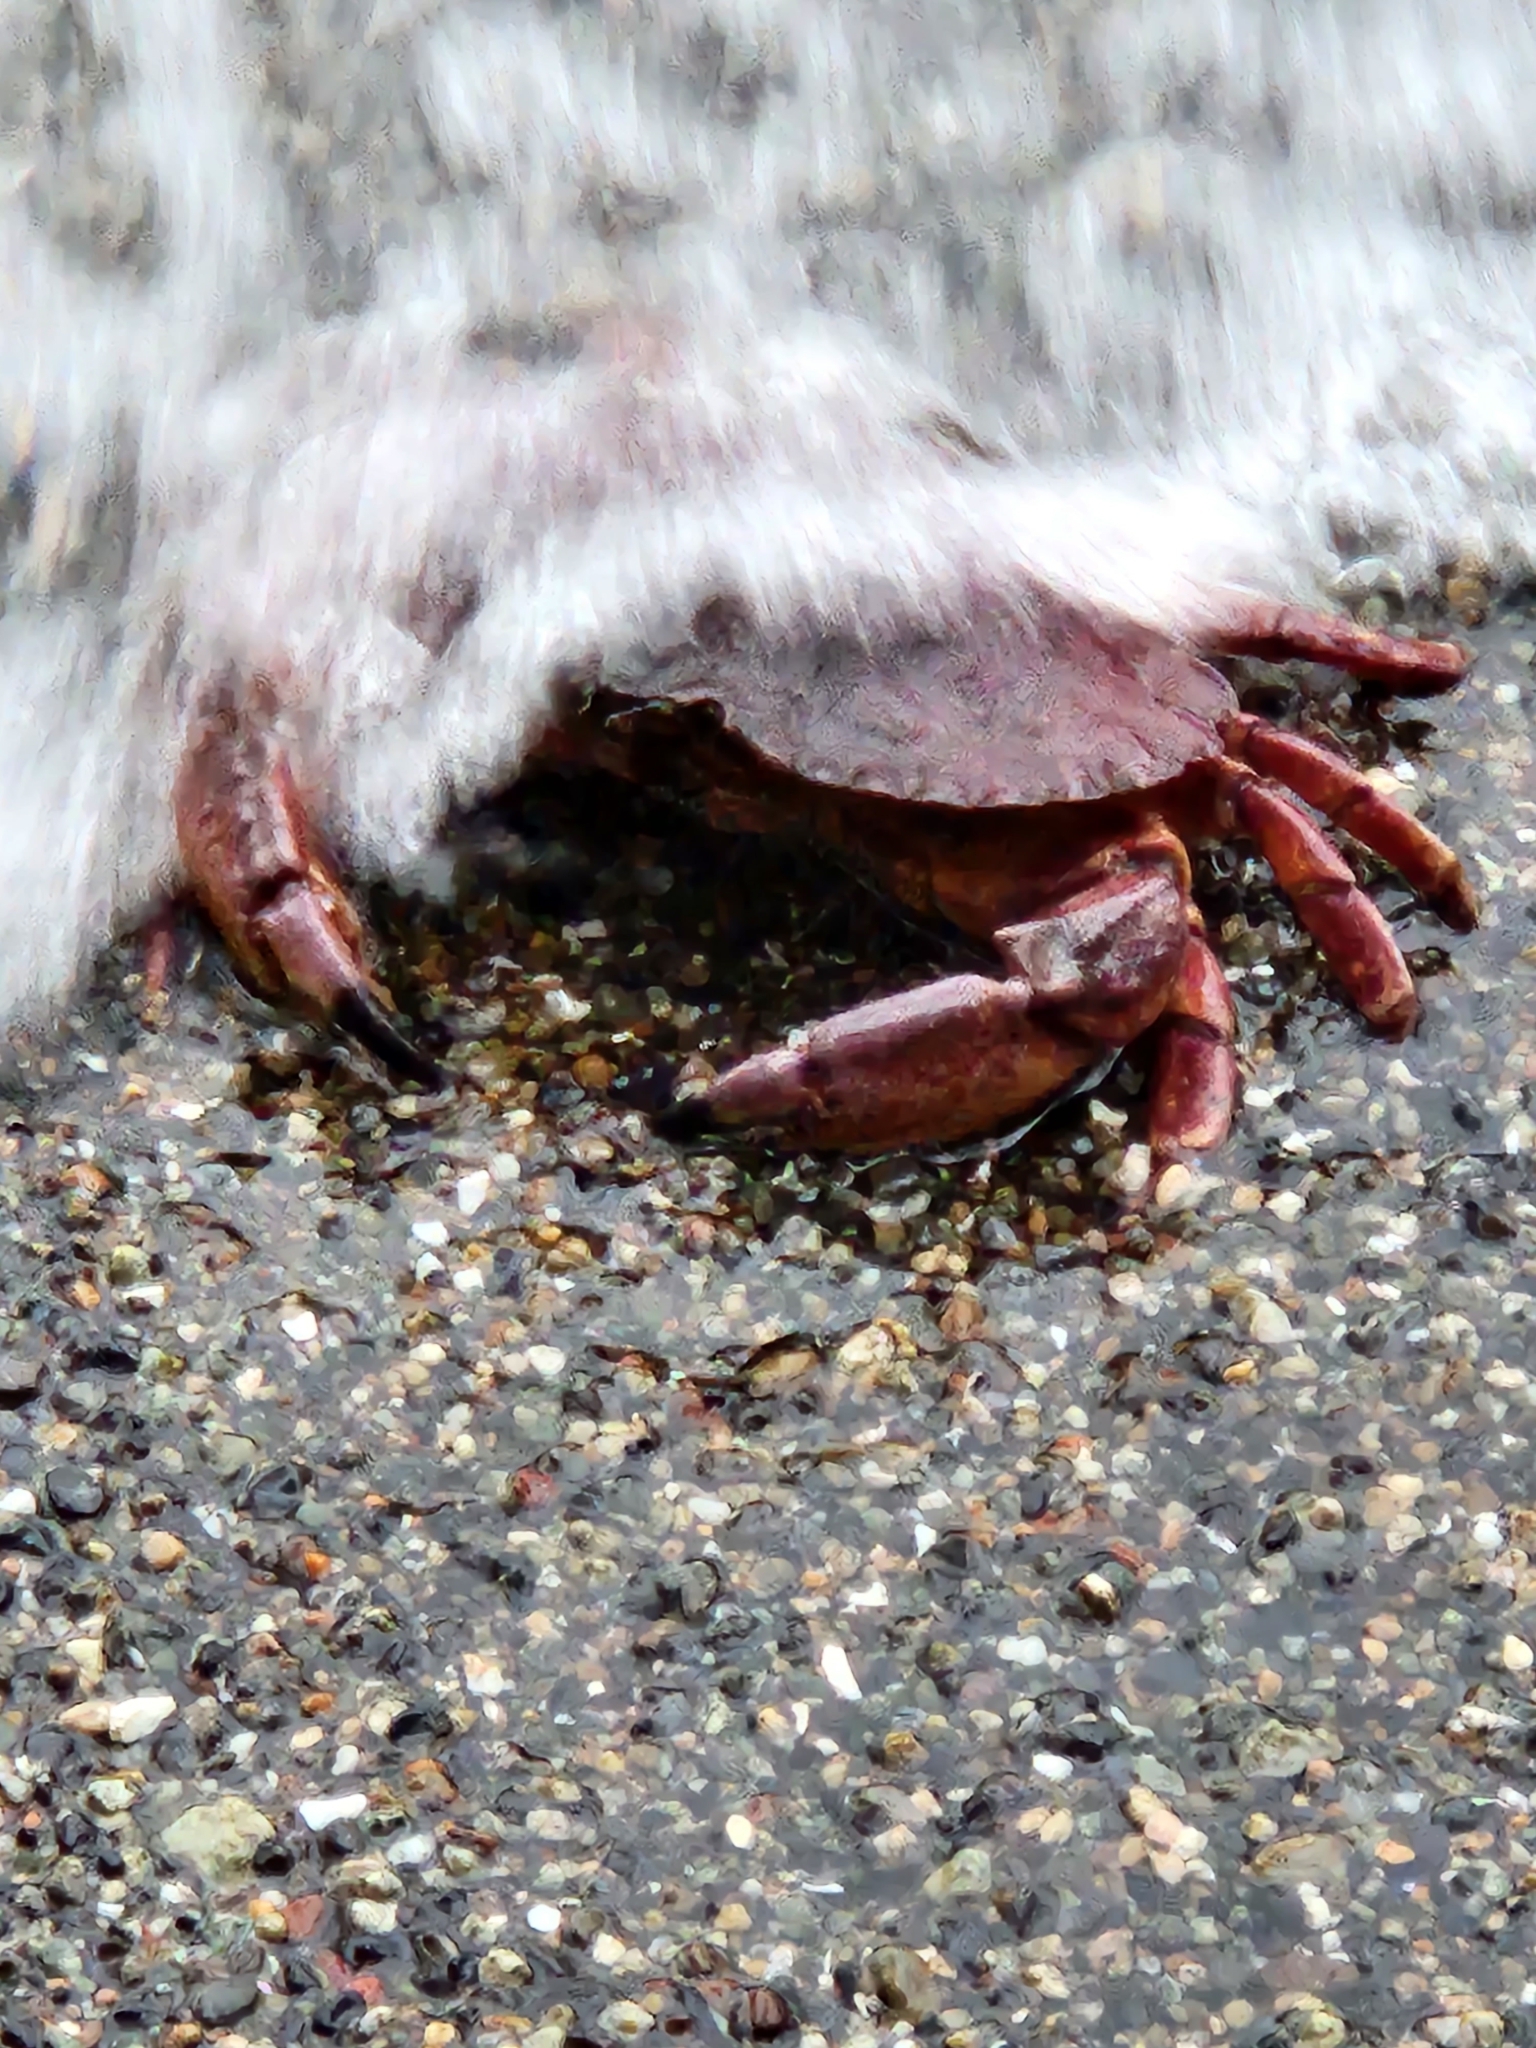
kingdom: Animalia
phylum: Arthropoda
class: Malacostraca
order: Decapoda
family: Cancridae
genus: Cancer
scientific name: Cancer productus
